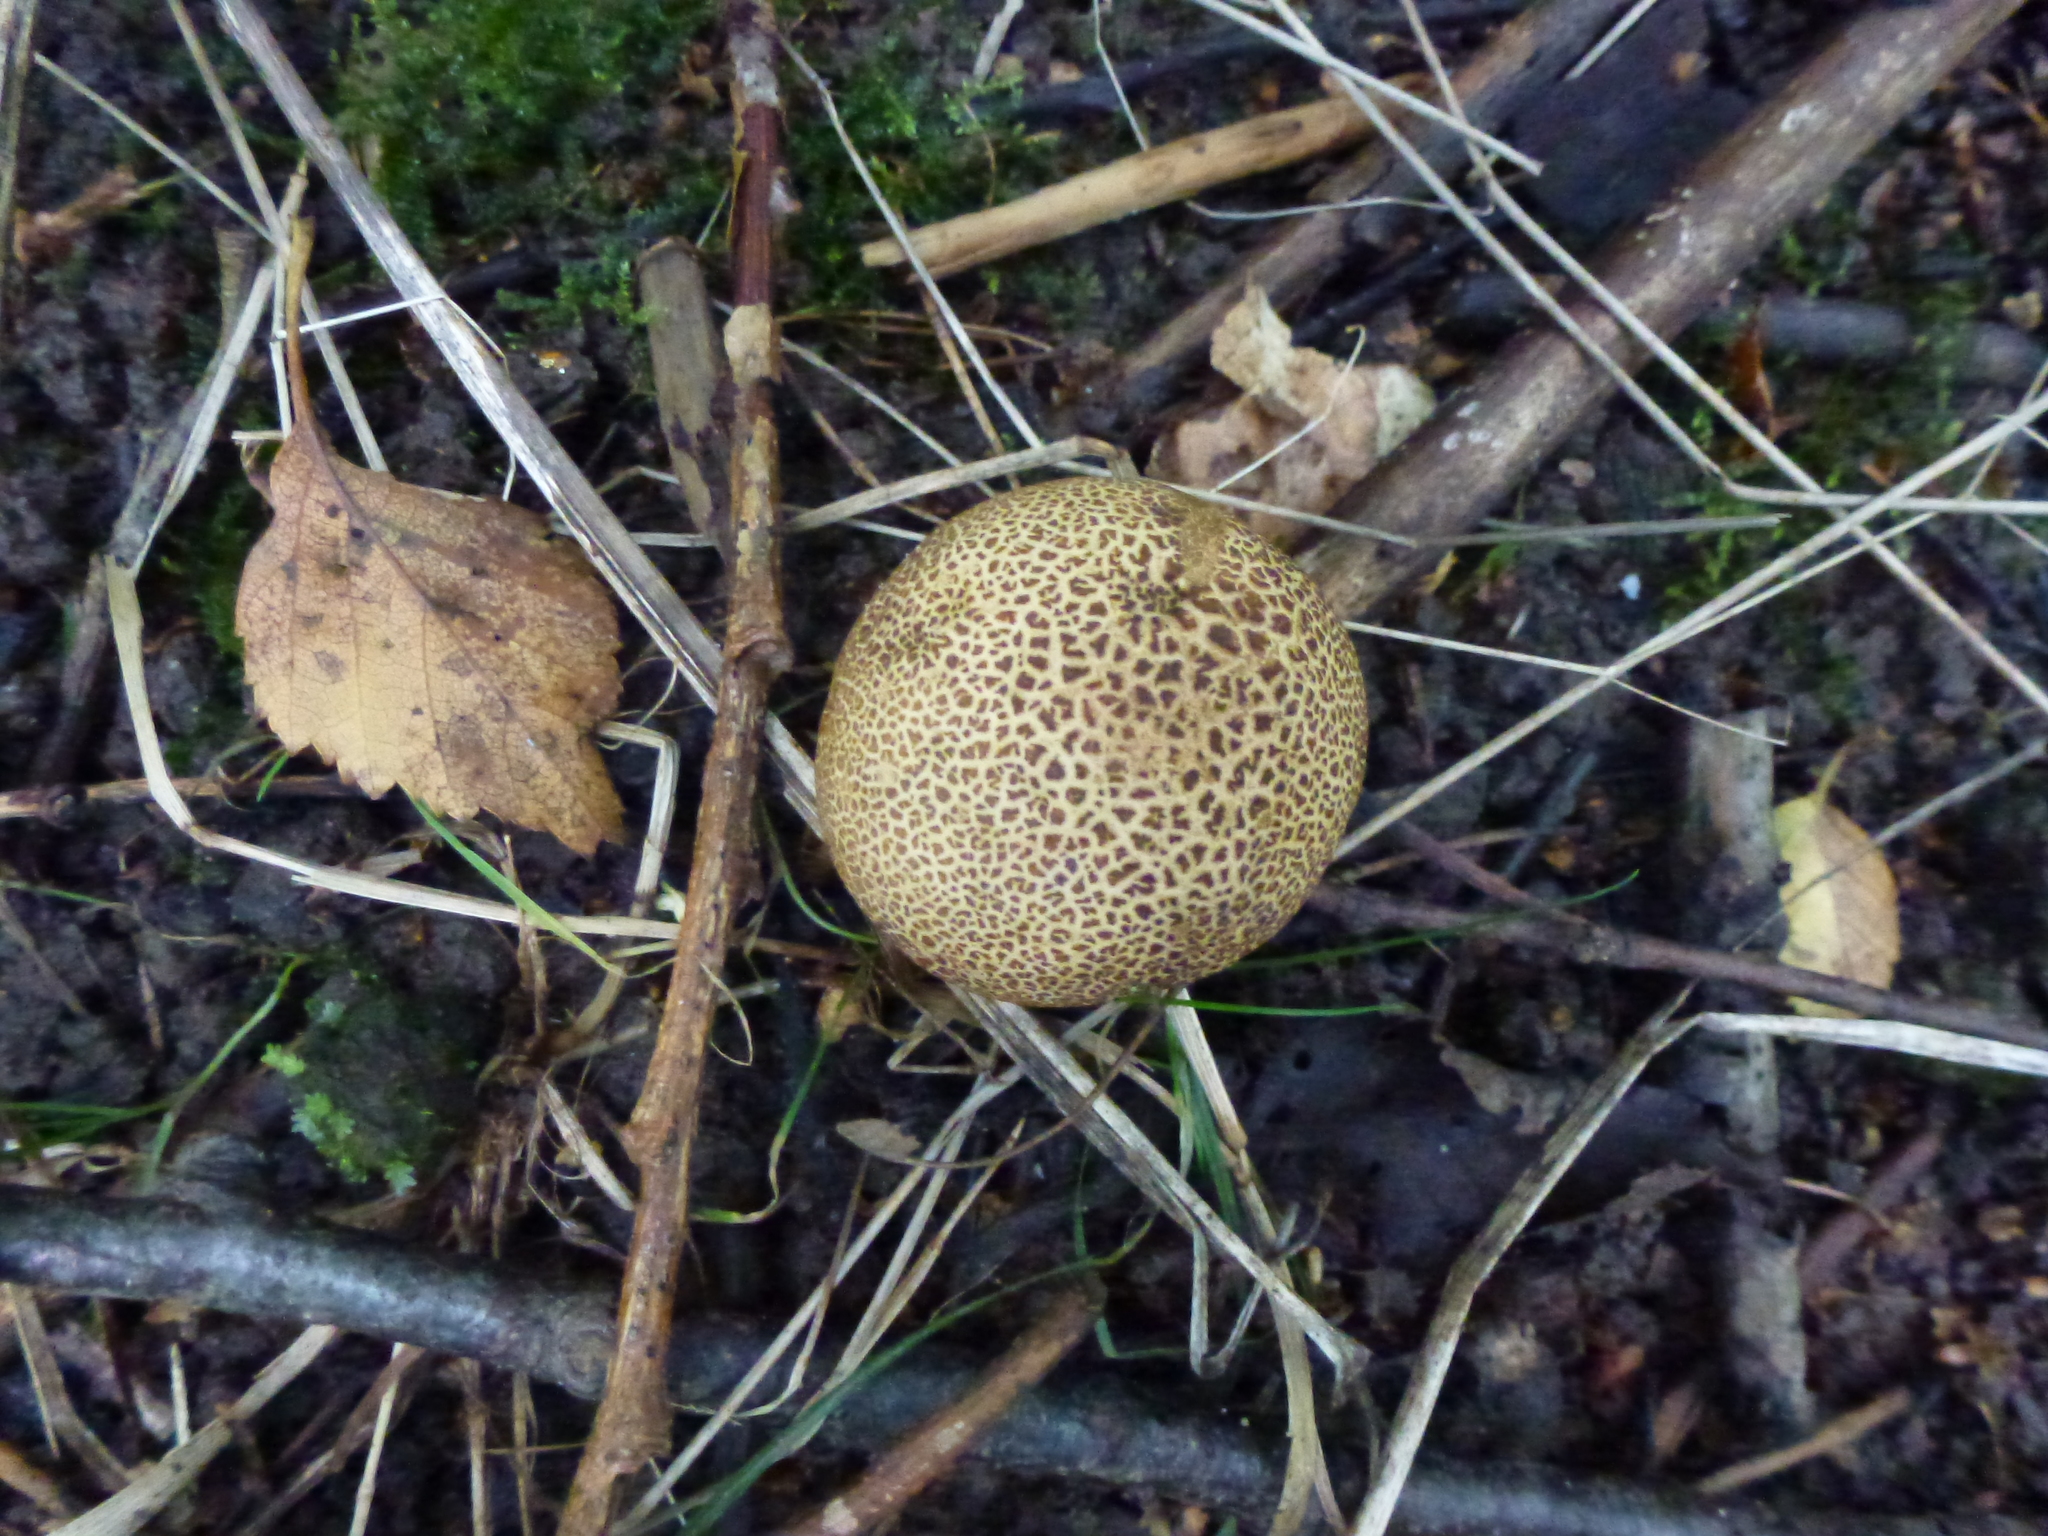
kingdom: Fungi
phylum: Basidiomycota
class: Agaricomycetes
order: Boletales
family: Sclerodermataceae
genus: Scleroderma
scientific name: Scleroderma citrinum
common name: Common earthball
